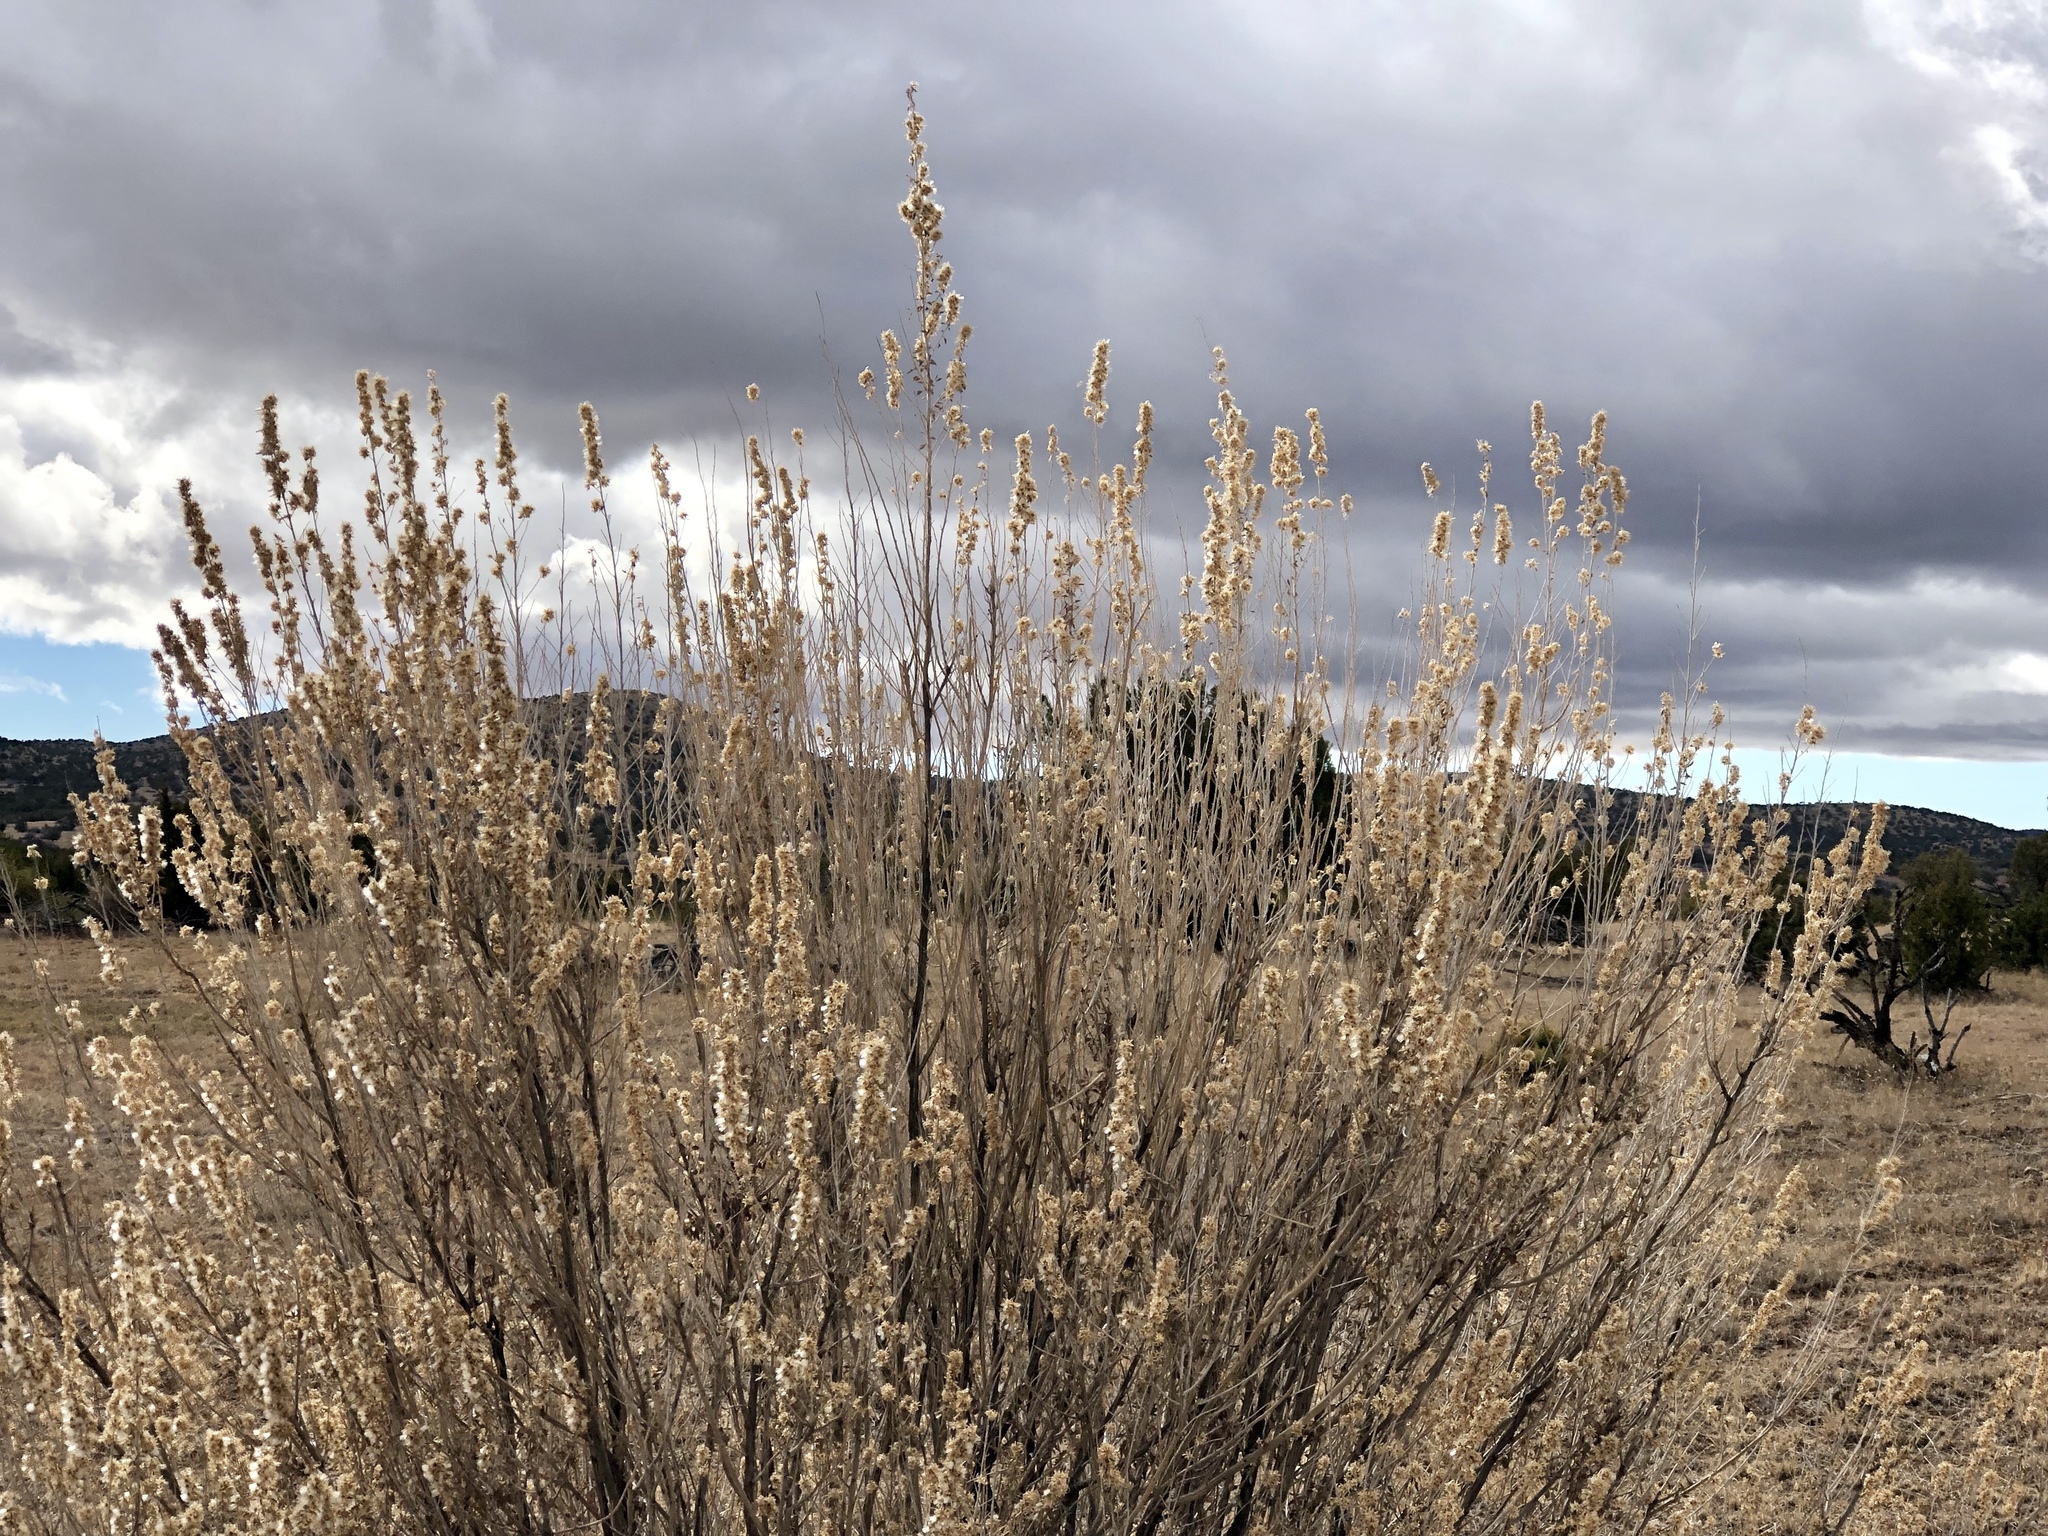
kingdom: Plantae
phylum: Tracheophyta
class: Magnoliopsida
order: Asterales
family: Asteraceae
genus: Brickellia
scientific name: Brickellia laciniata
